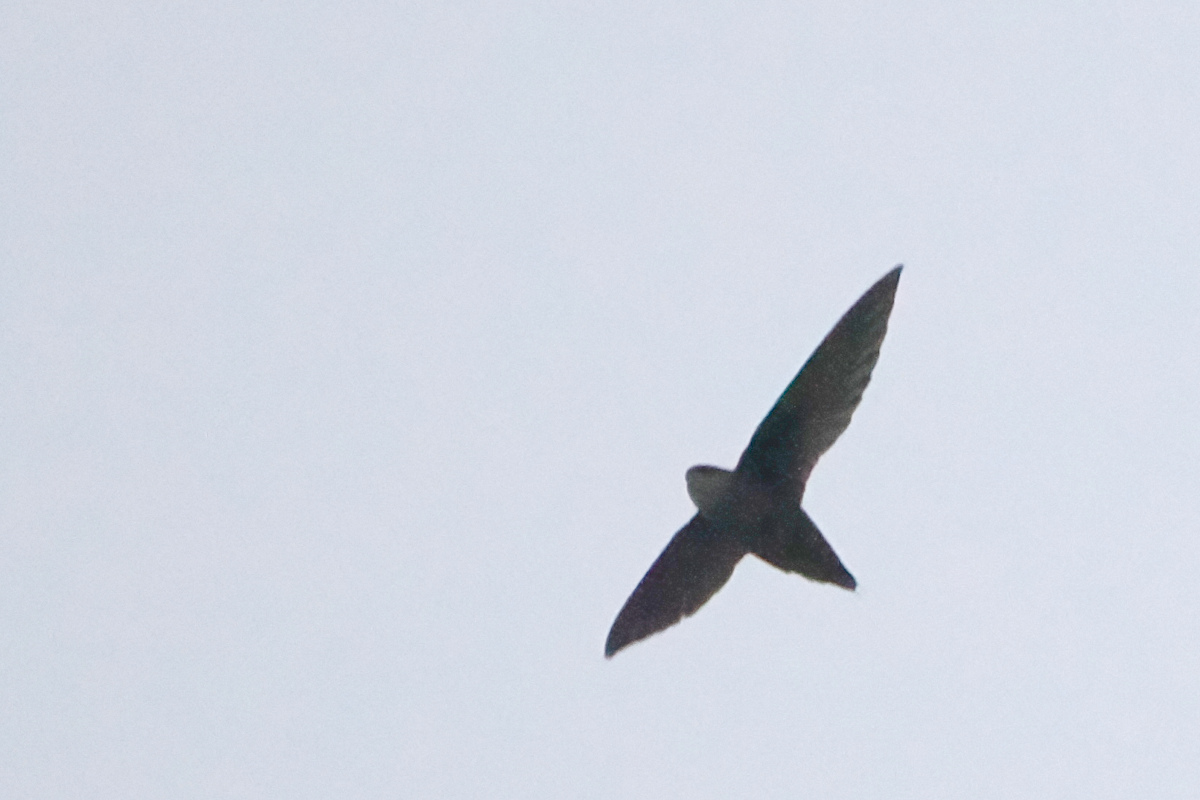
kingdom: Animalia
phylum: Chordata
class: Aves
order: Apodiformes
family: Apodidae
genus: Chaetura
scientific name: Chaetura pelagica
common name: Chimney swift
